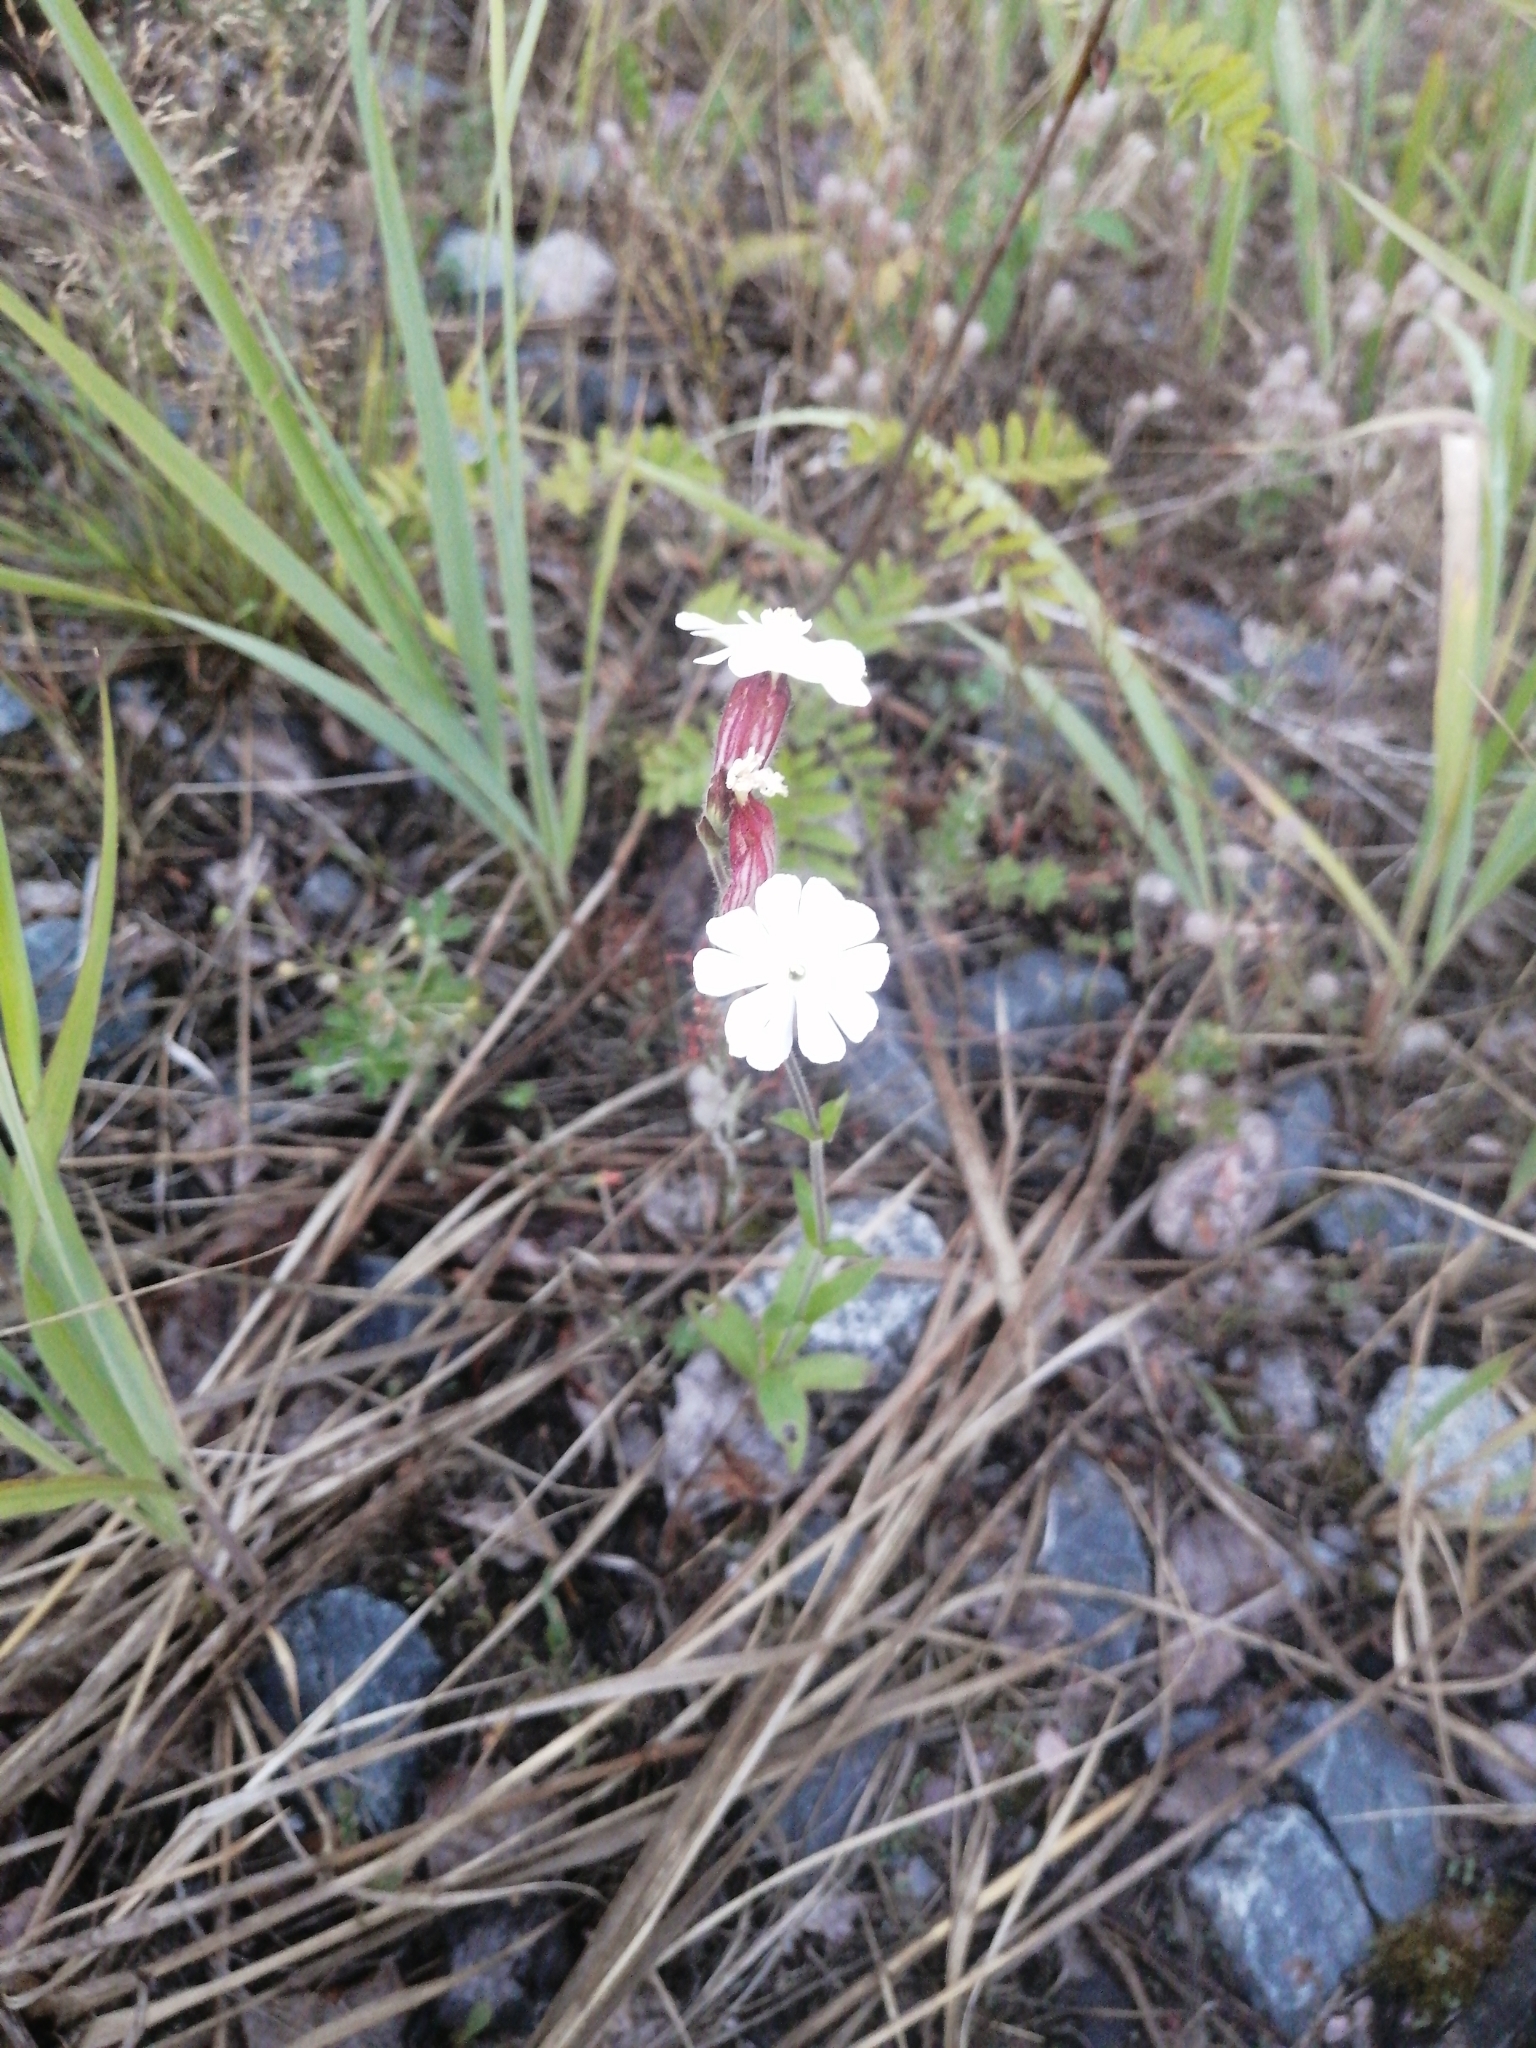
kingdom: Plantae
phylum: Tracheophyta
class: Magnoliopsida
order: Caryophyllales
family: Caryophyllaceae
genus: Silene
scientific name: Silene latifolia
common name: White campion
